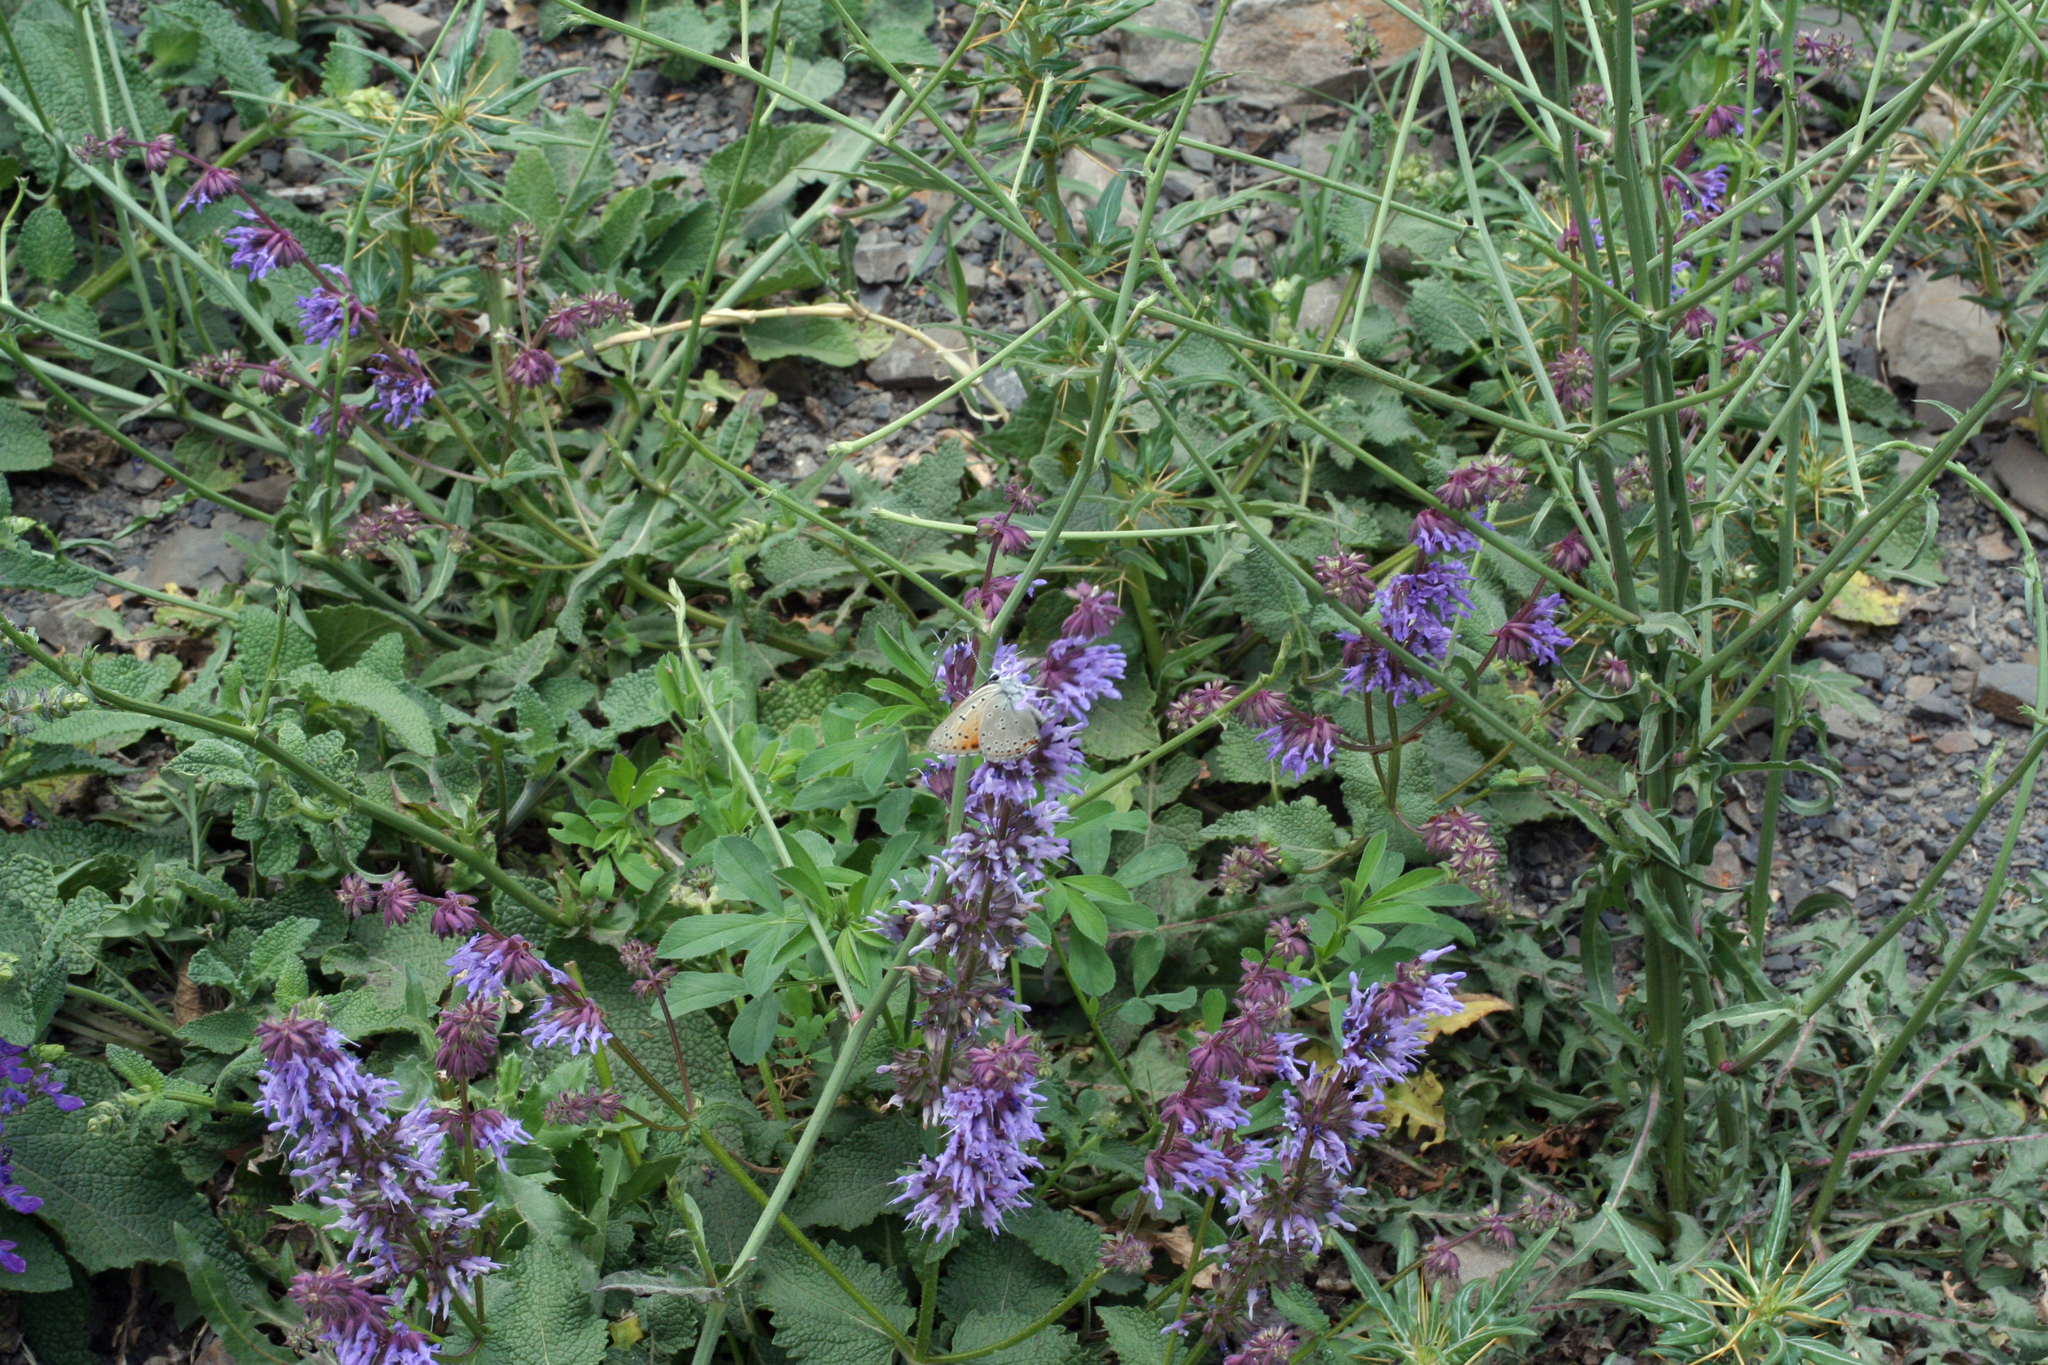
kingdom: Plantae
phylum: Tracheophyta
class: Magnoliopsida
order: Lamiales
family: Lamiaceae
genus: Salvia
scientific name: Salvia verticillata
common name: Whorled clary
